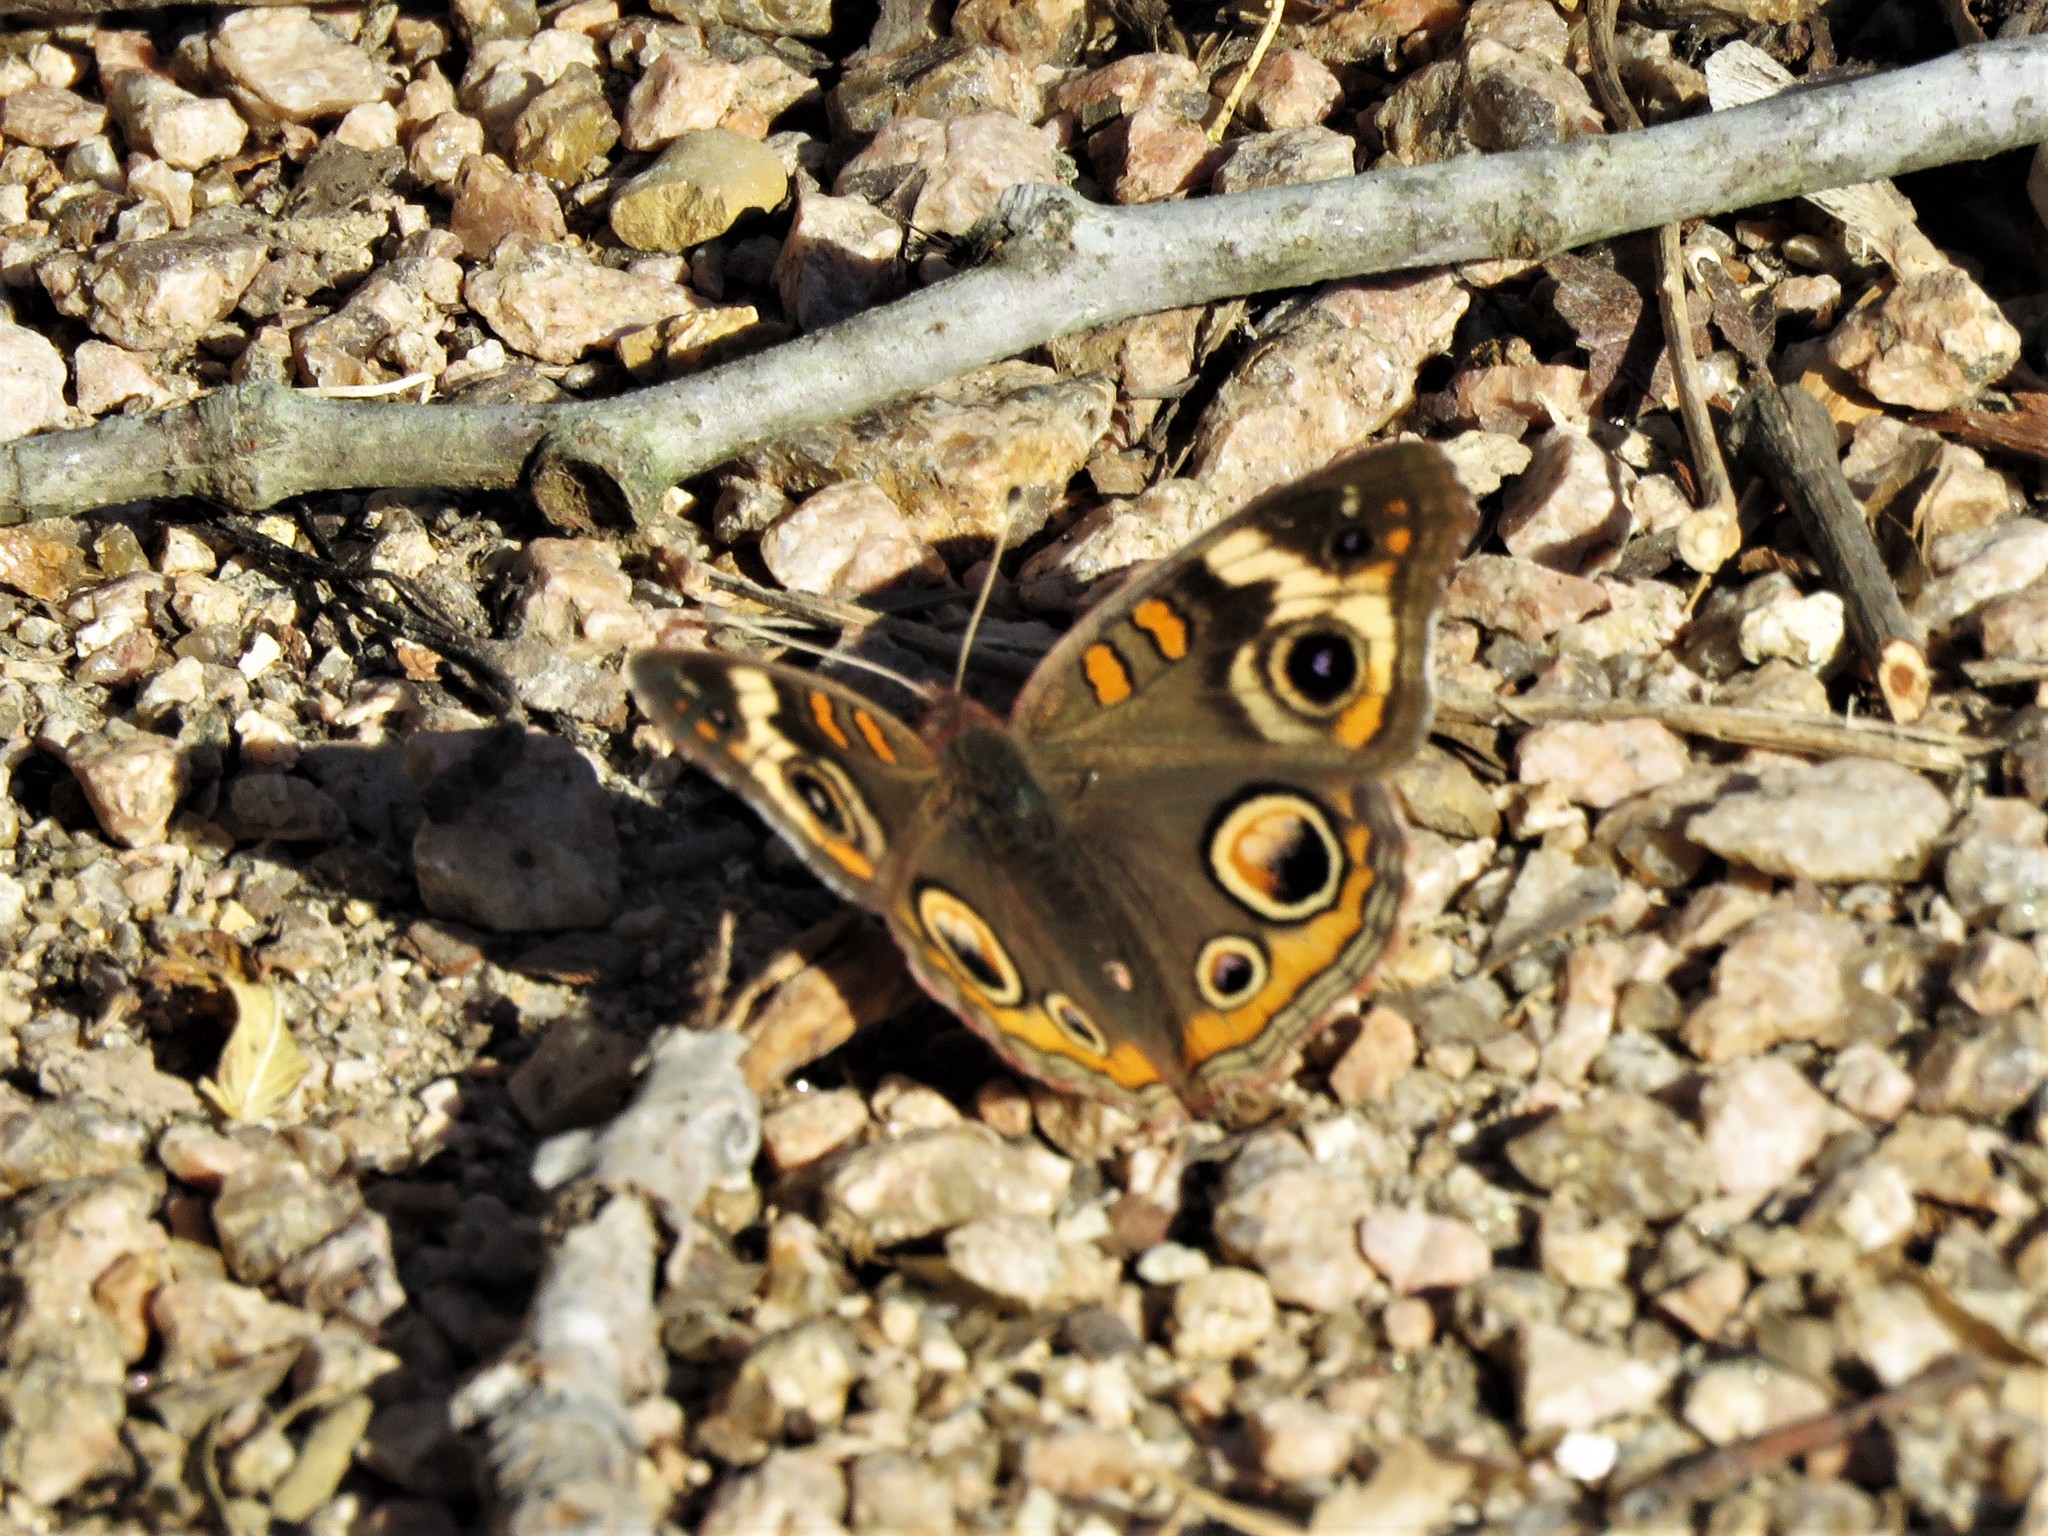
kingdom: Animalia
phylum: Arthropoda
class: Insecta
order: Lepidoptera
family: Nymphalidae
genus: Junonia
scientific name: Junonia coenia
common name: Common buckeye
